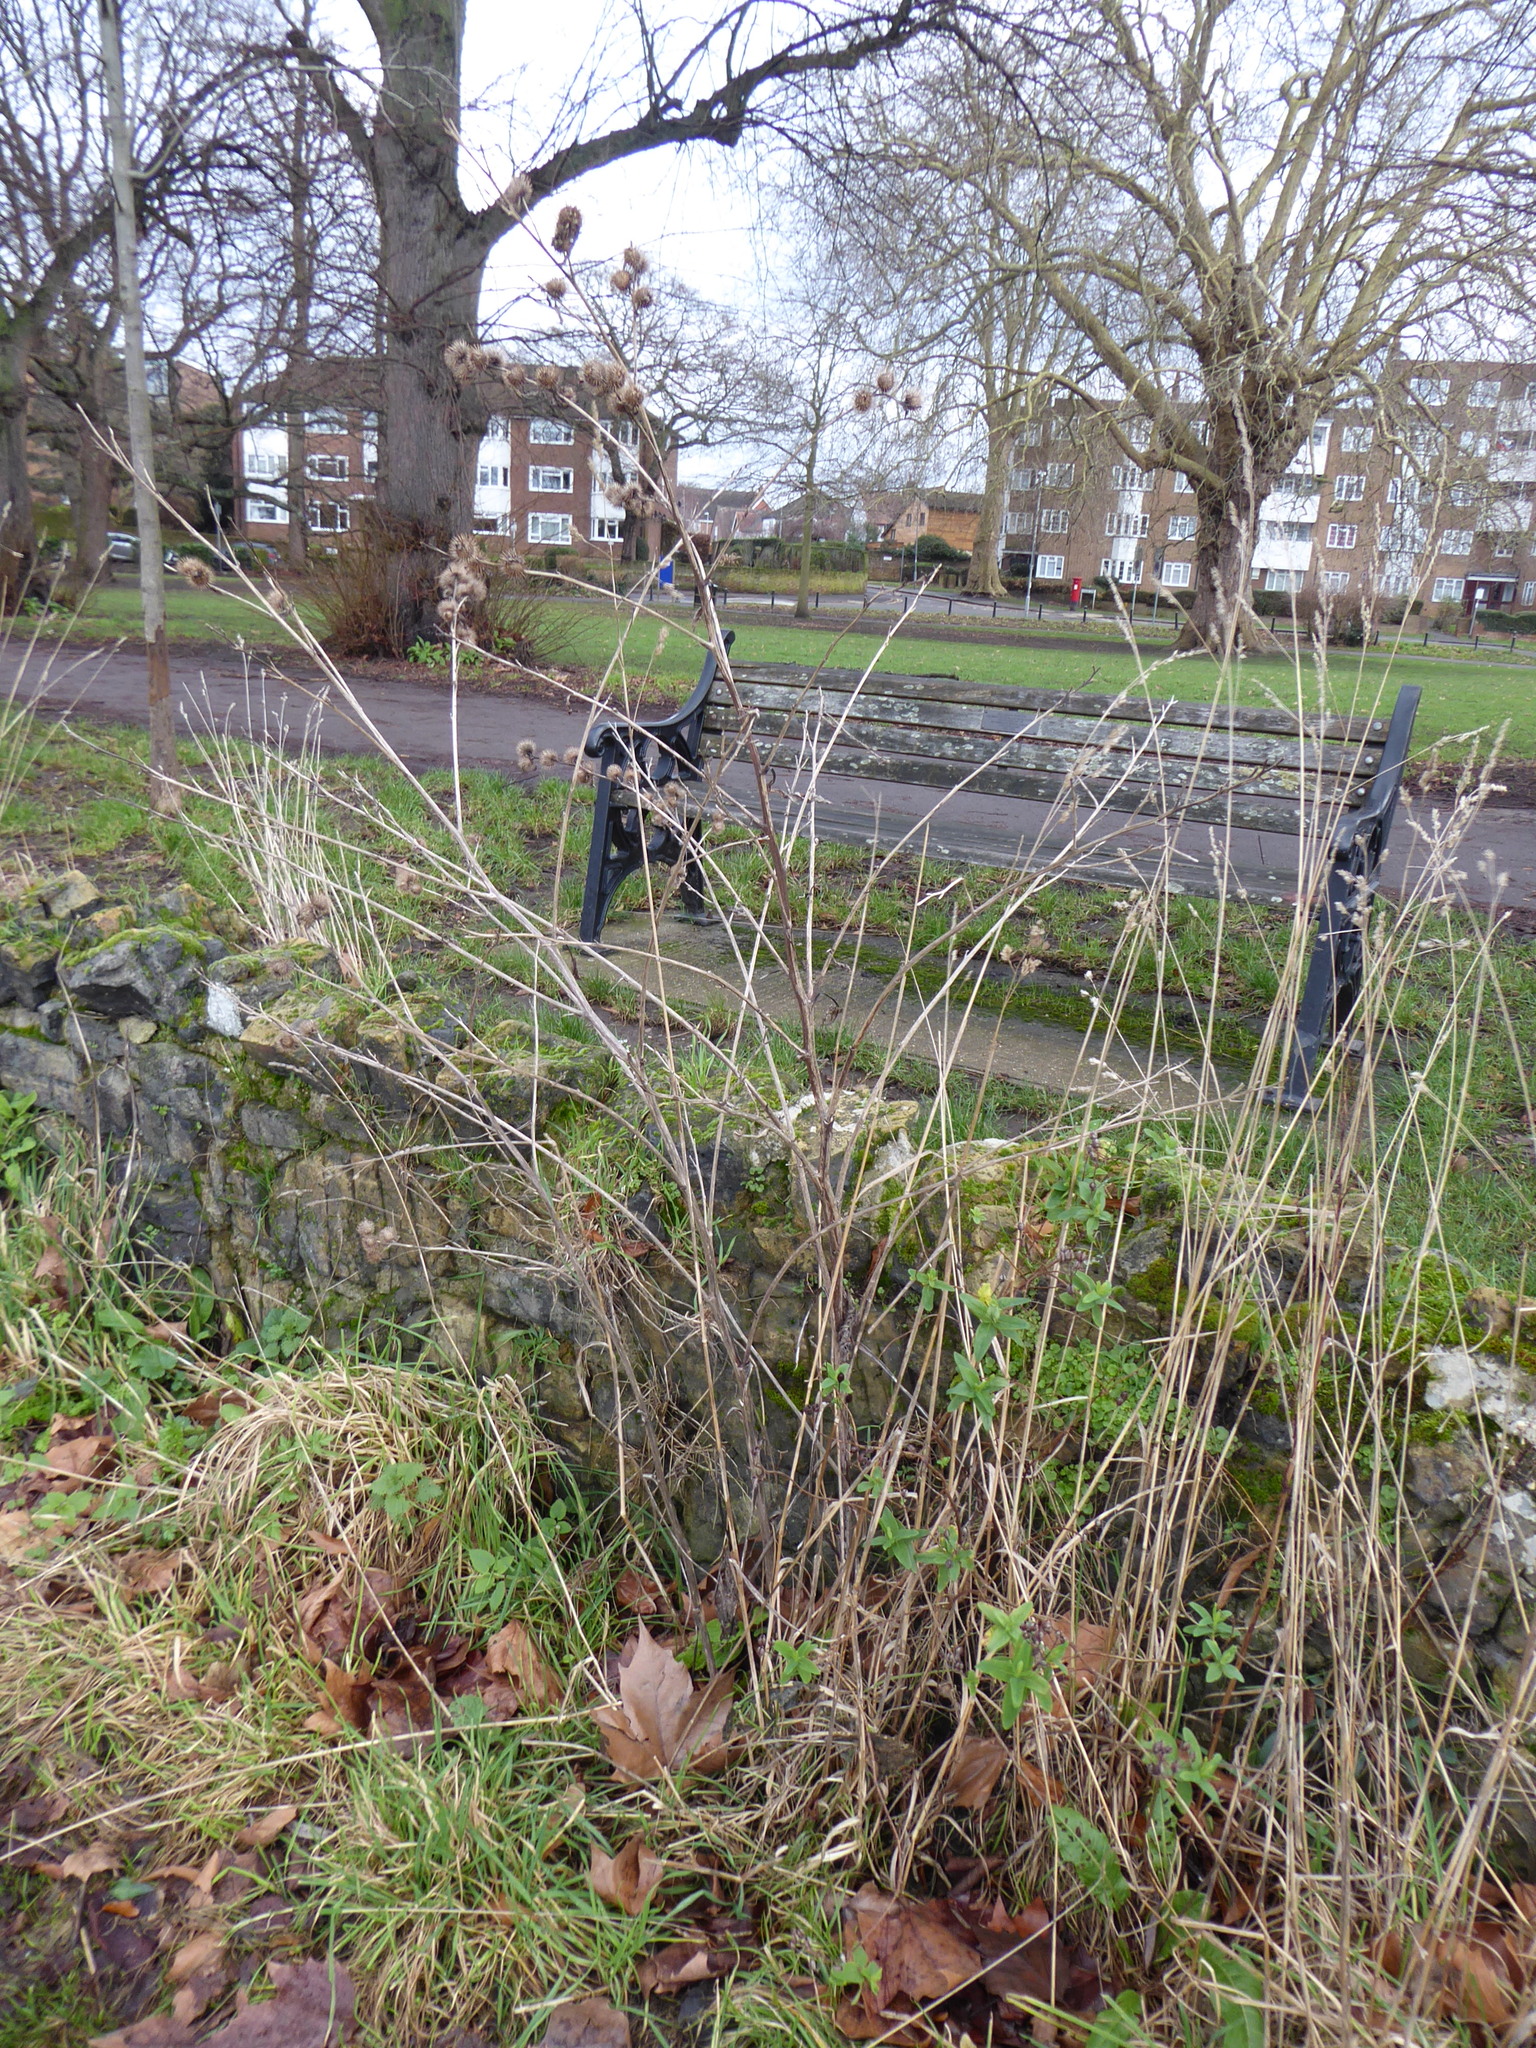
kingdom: Plantae
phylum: Tracheophyta
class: Magnoliopsida
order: Asterales
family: Asteraceae
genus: Arctium
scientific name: Arctium minus
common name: Lesser burdock
